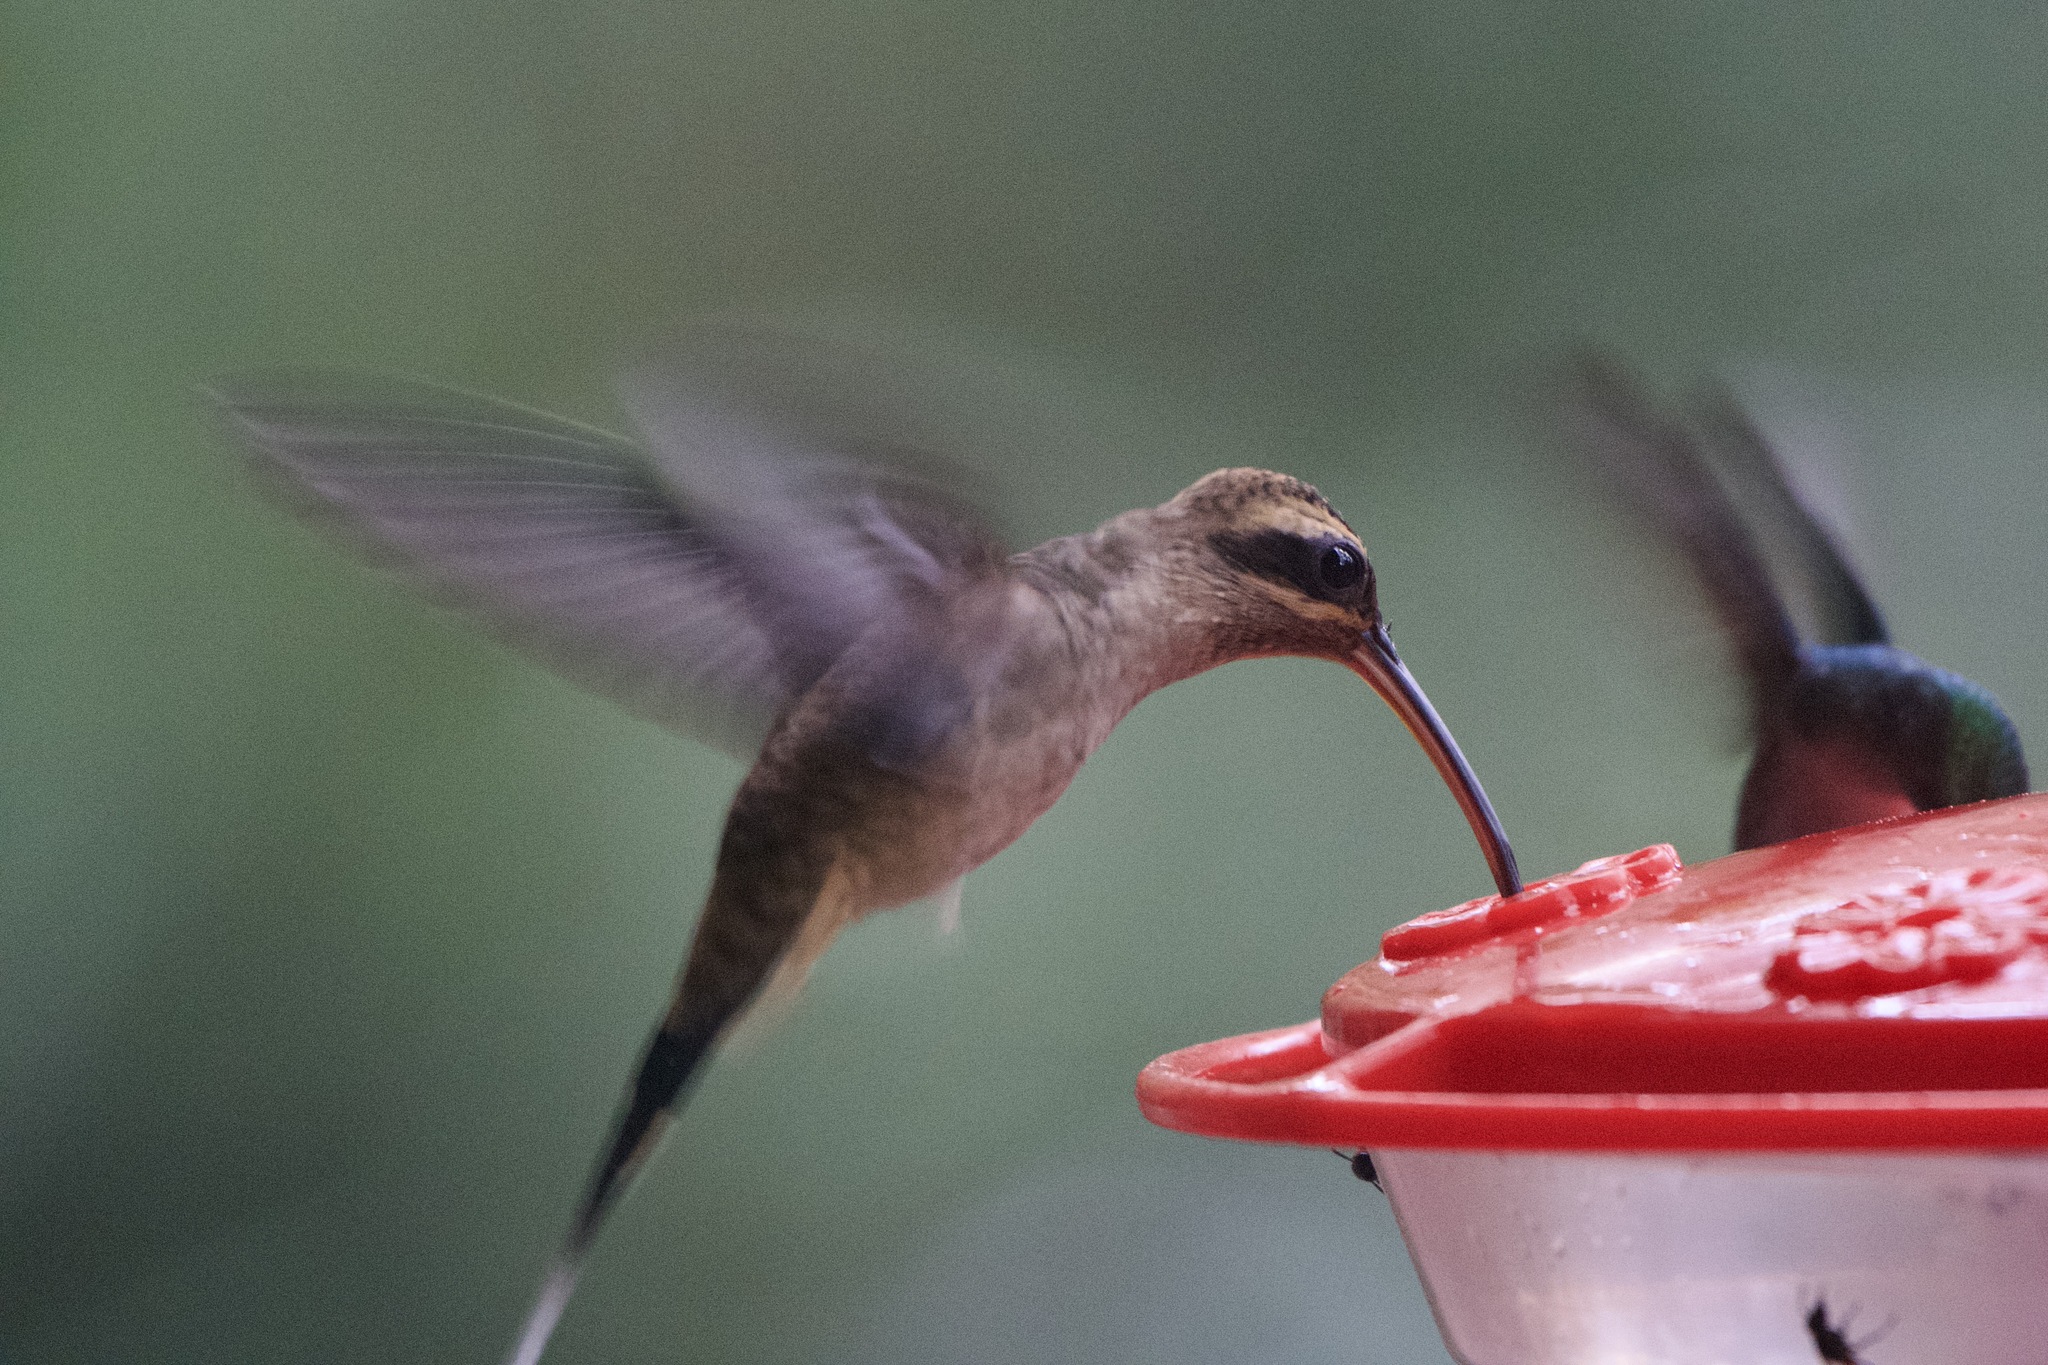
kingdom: Animalia
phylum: Chordata
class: Aves
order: Apodiformes
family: Trochilidae
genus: Phaethornis
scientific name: Phaethornis longirostris
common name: Long-billed hermit
